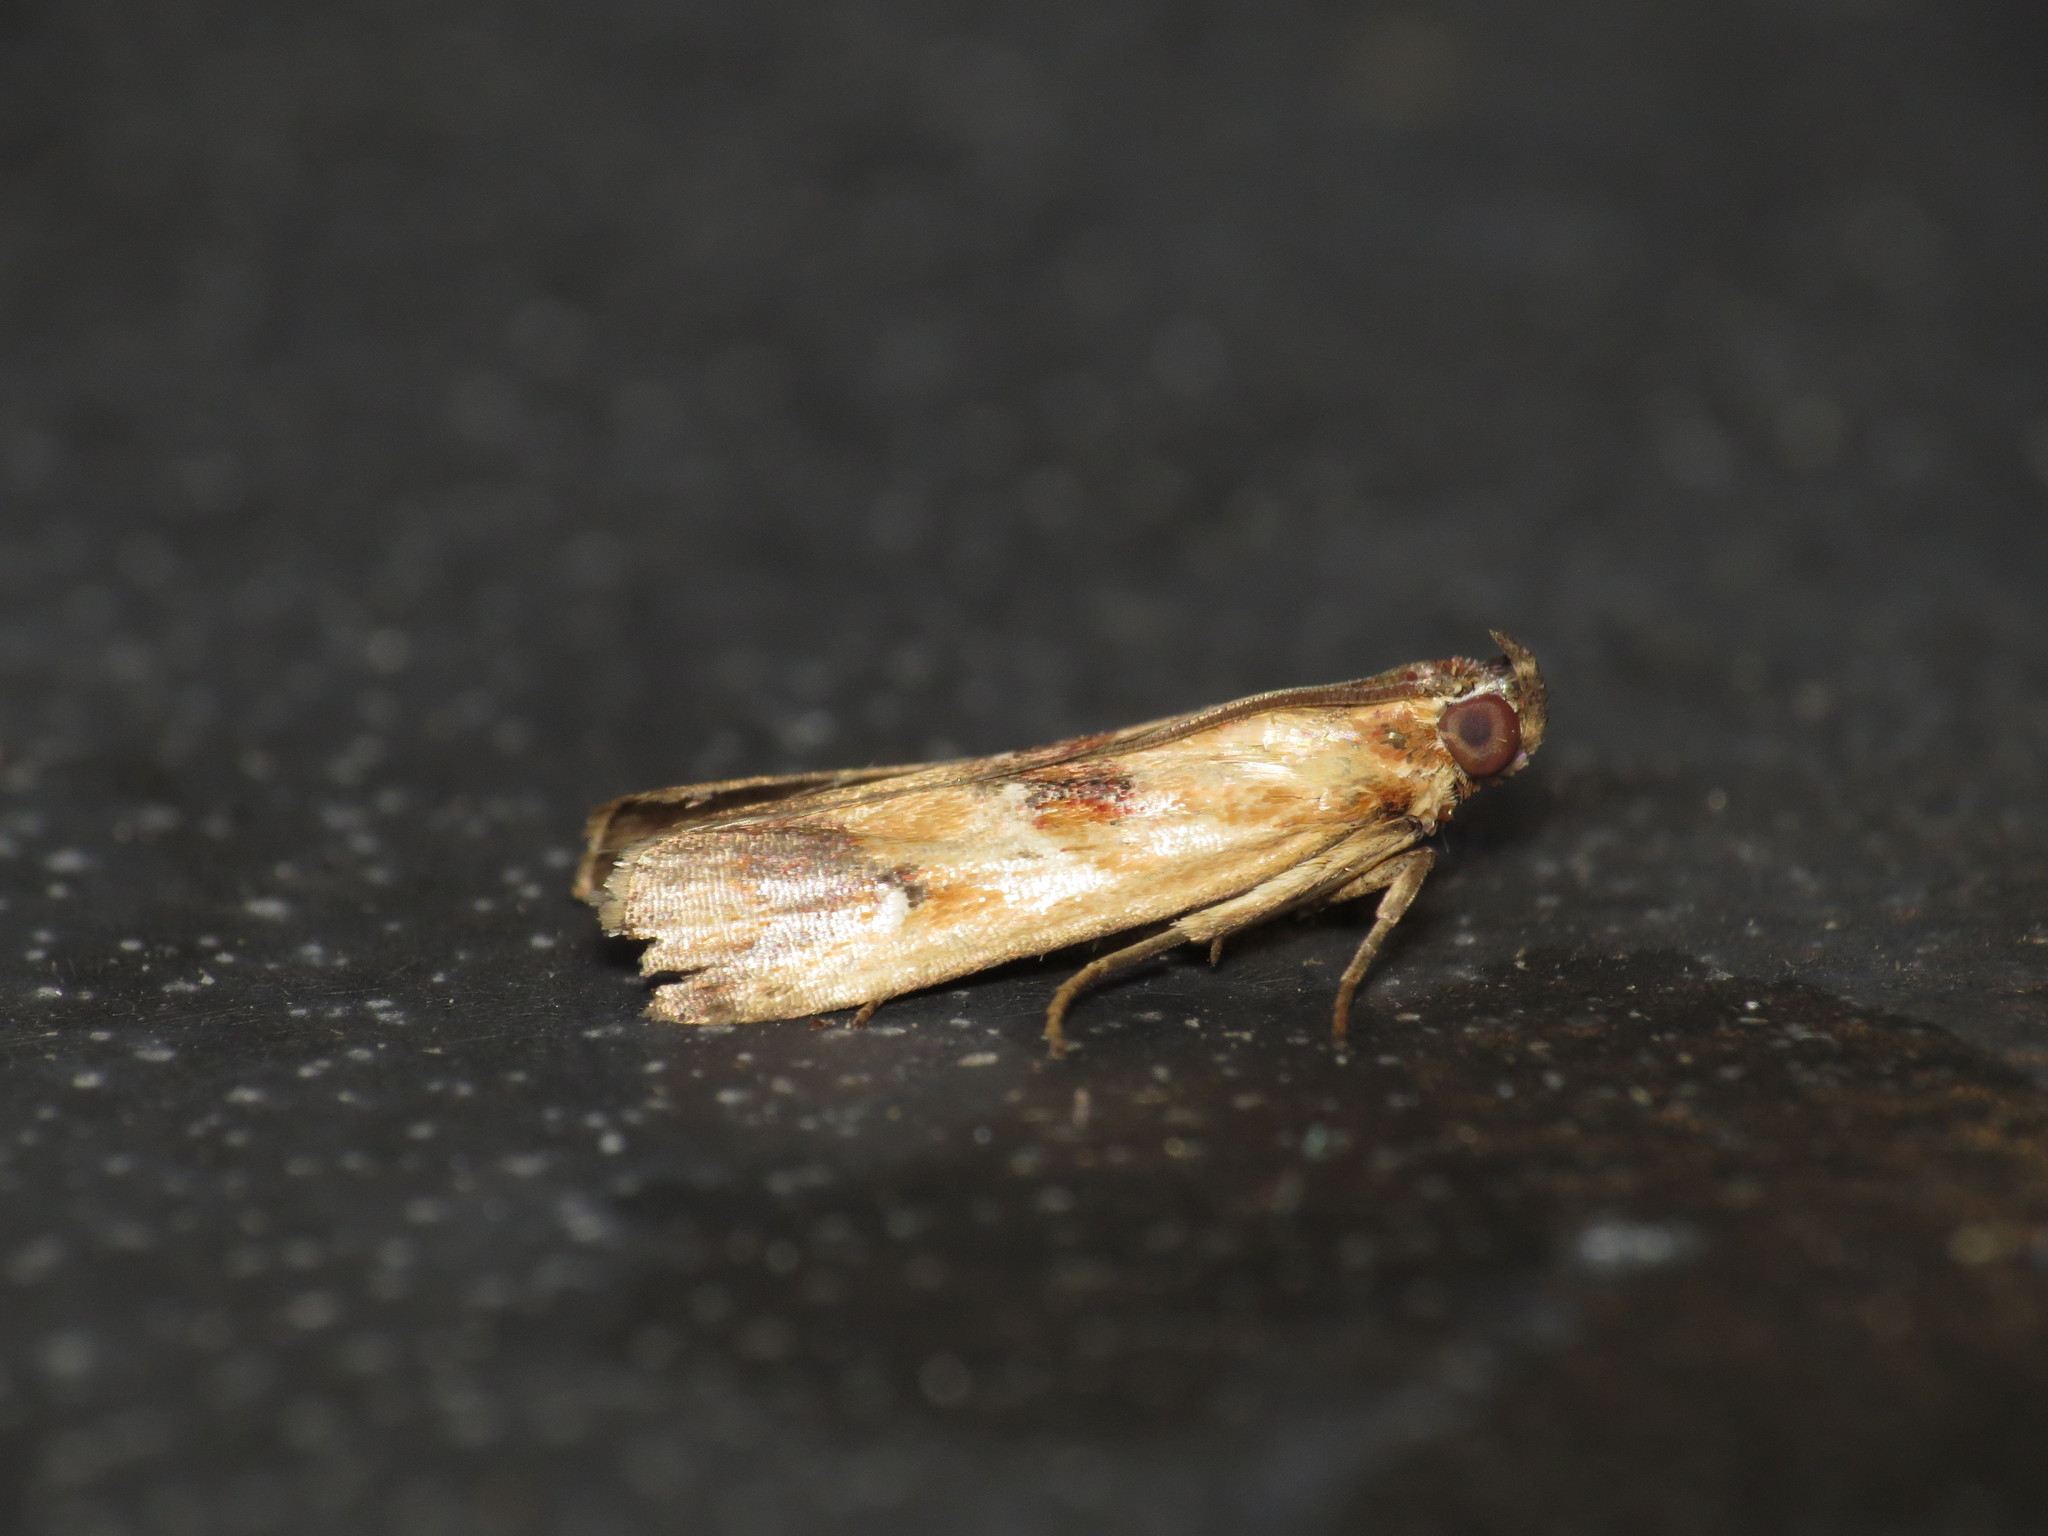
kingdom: Animalia
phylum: Arthropoda
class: Insecta
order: Lepidoptera
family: Pyralidae
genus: Epicrocis
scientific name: Epicrocis metallopa
